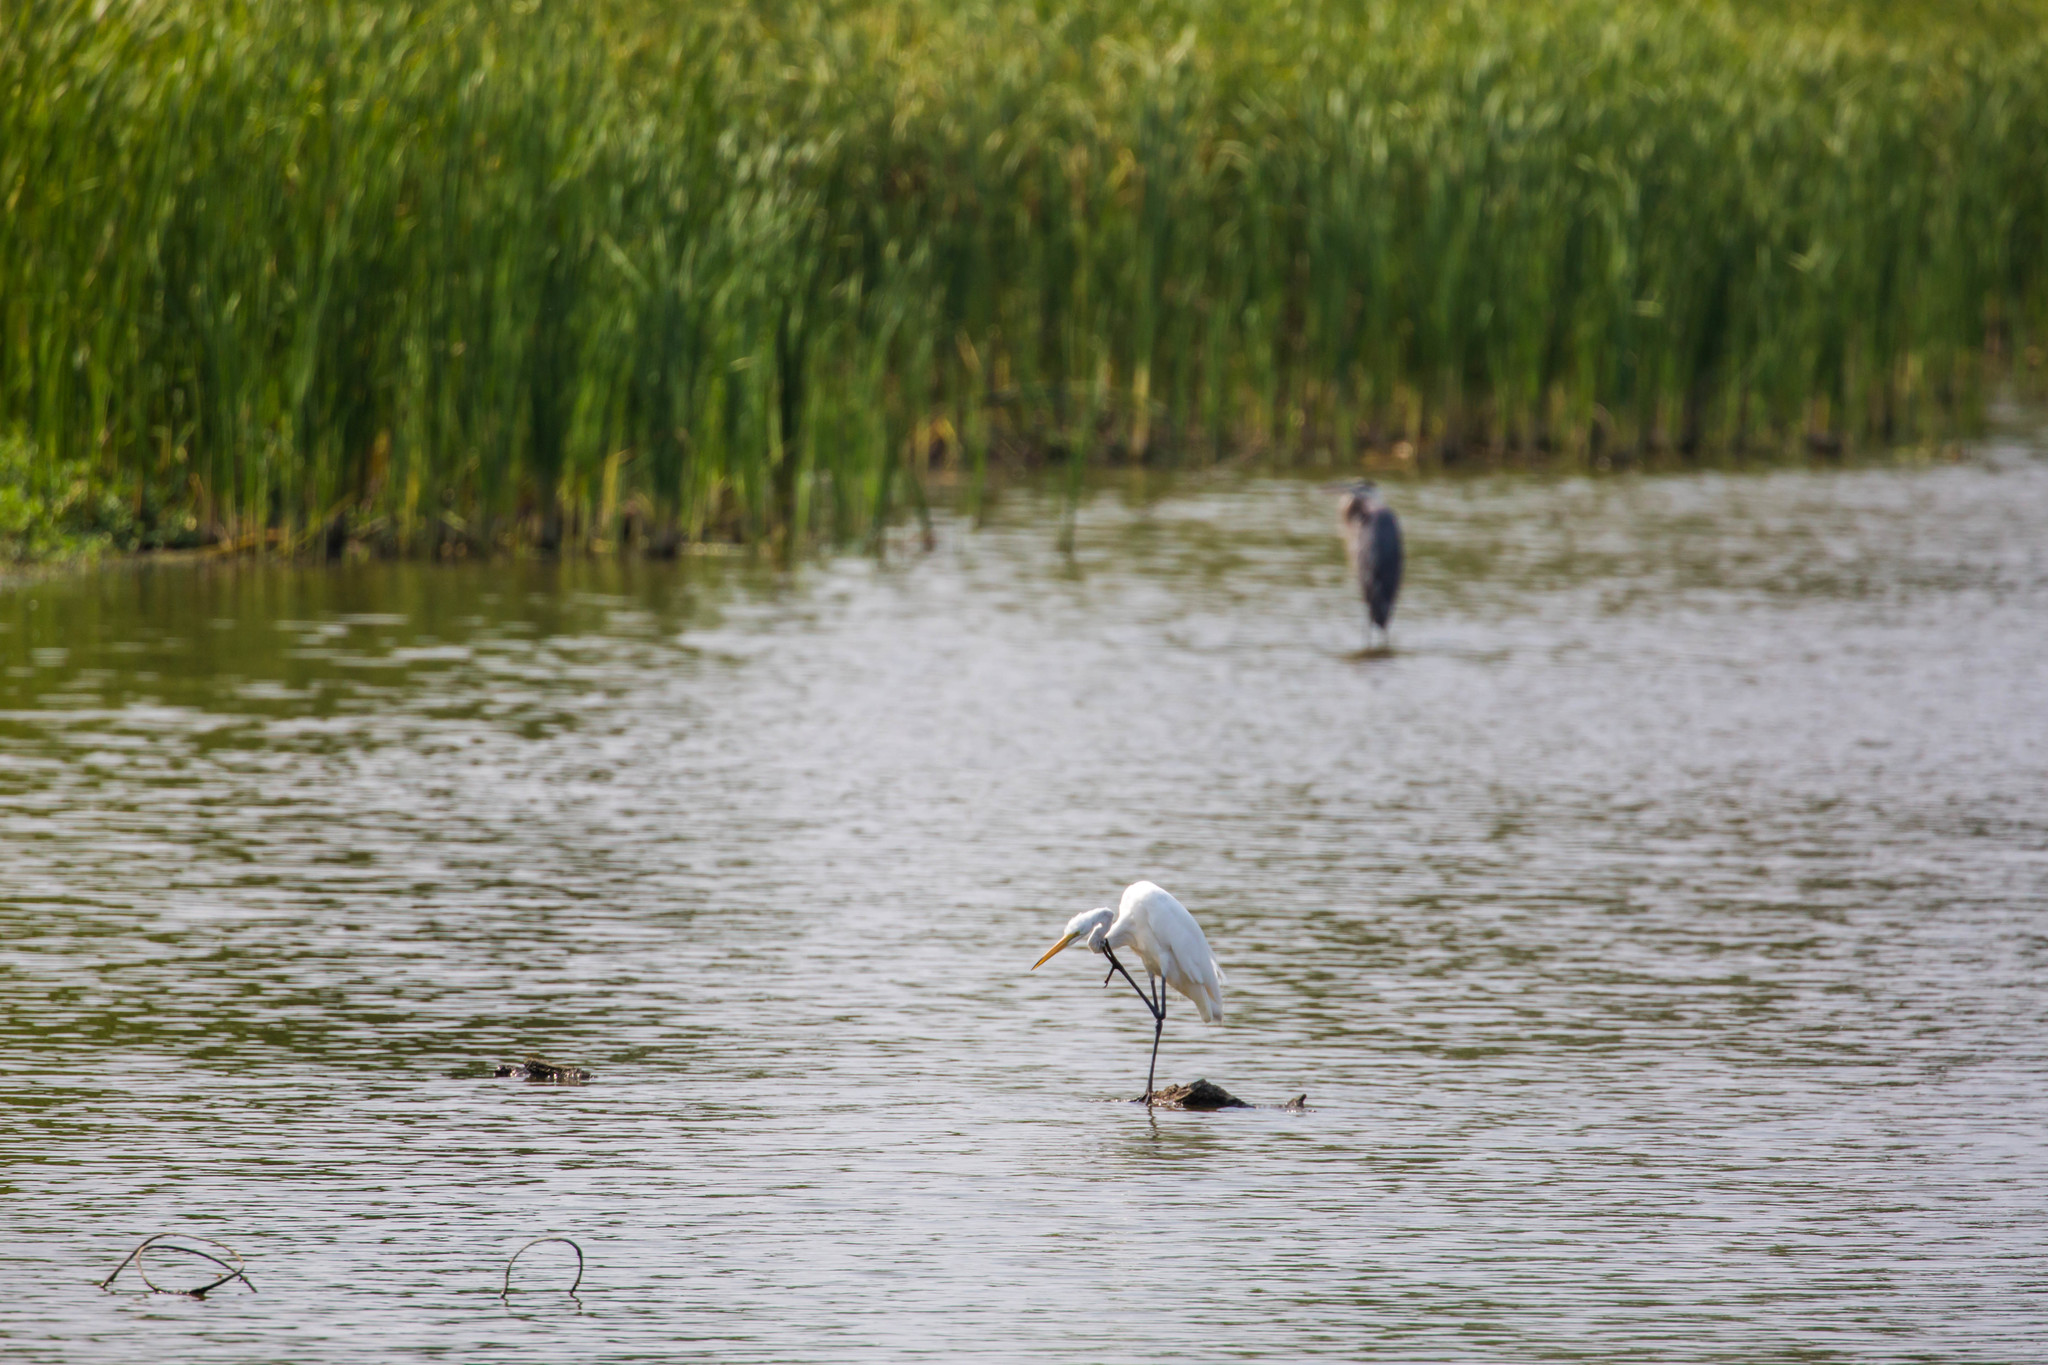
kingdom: Animalia
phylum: Chordata
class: Aves
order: Pelecaniformes
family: Ardeidae
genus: Ardea
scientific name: Ardea alba
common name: Great egret
